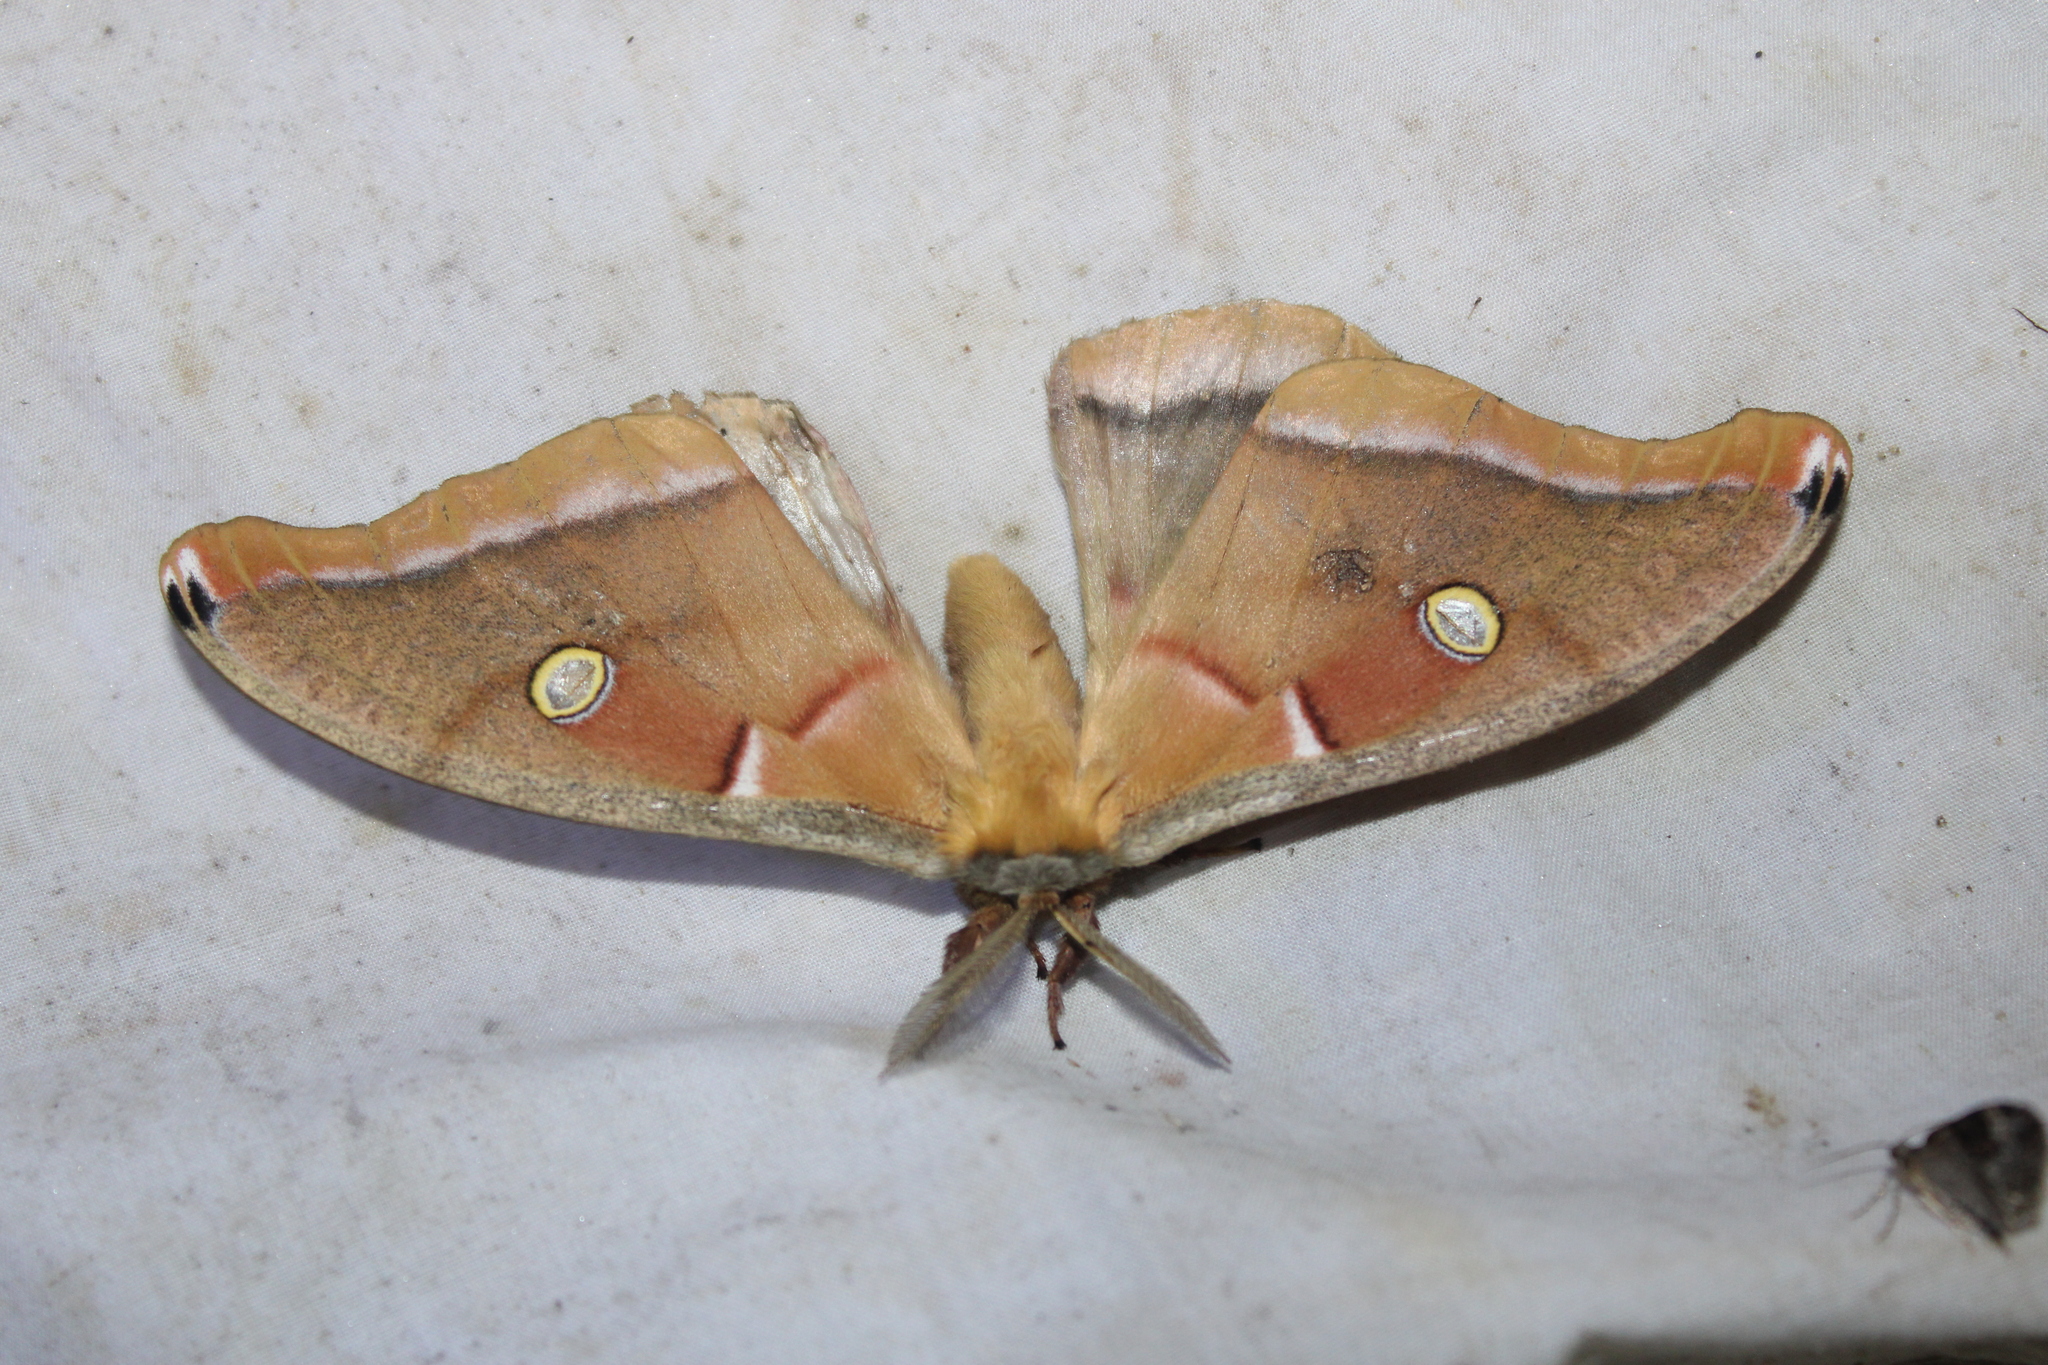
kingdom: Animalia
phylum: Arthropoda
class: Insecta
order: Lepidoptera
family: Saturniidae
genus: Antheraea
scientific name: Antheraea polyphemus
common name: Polyphemus moth
